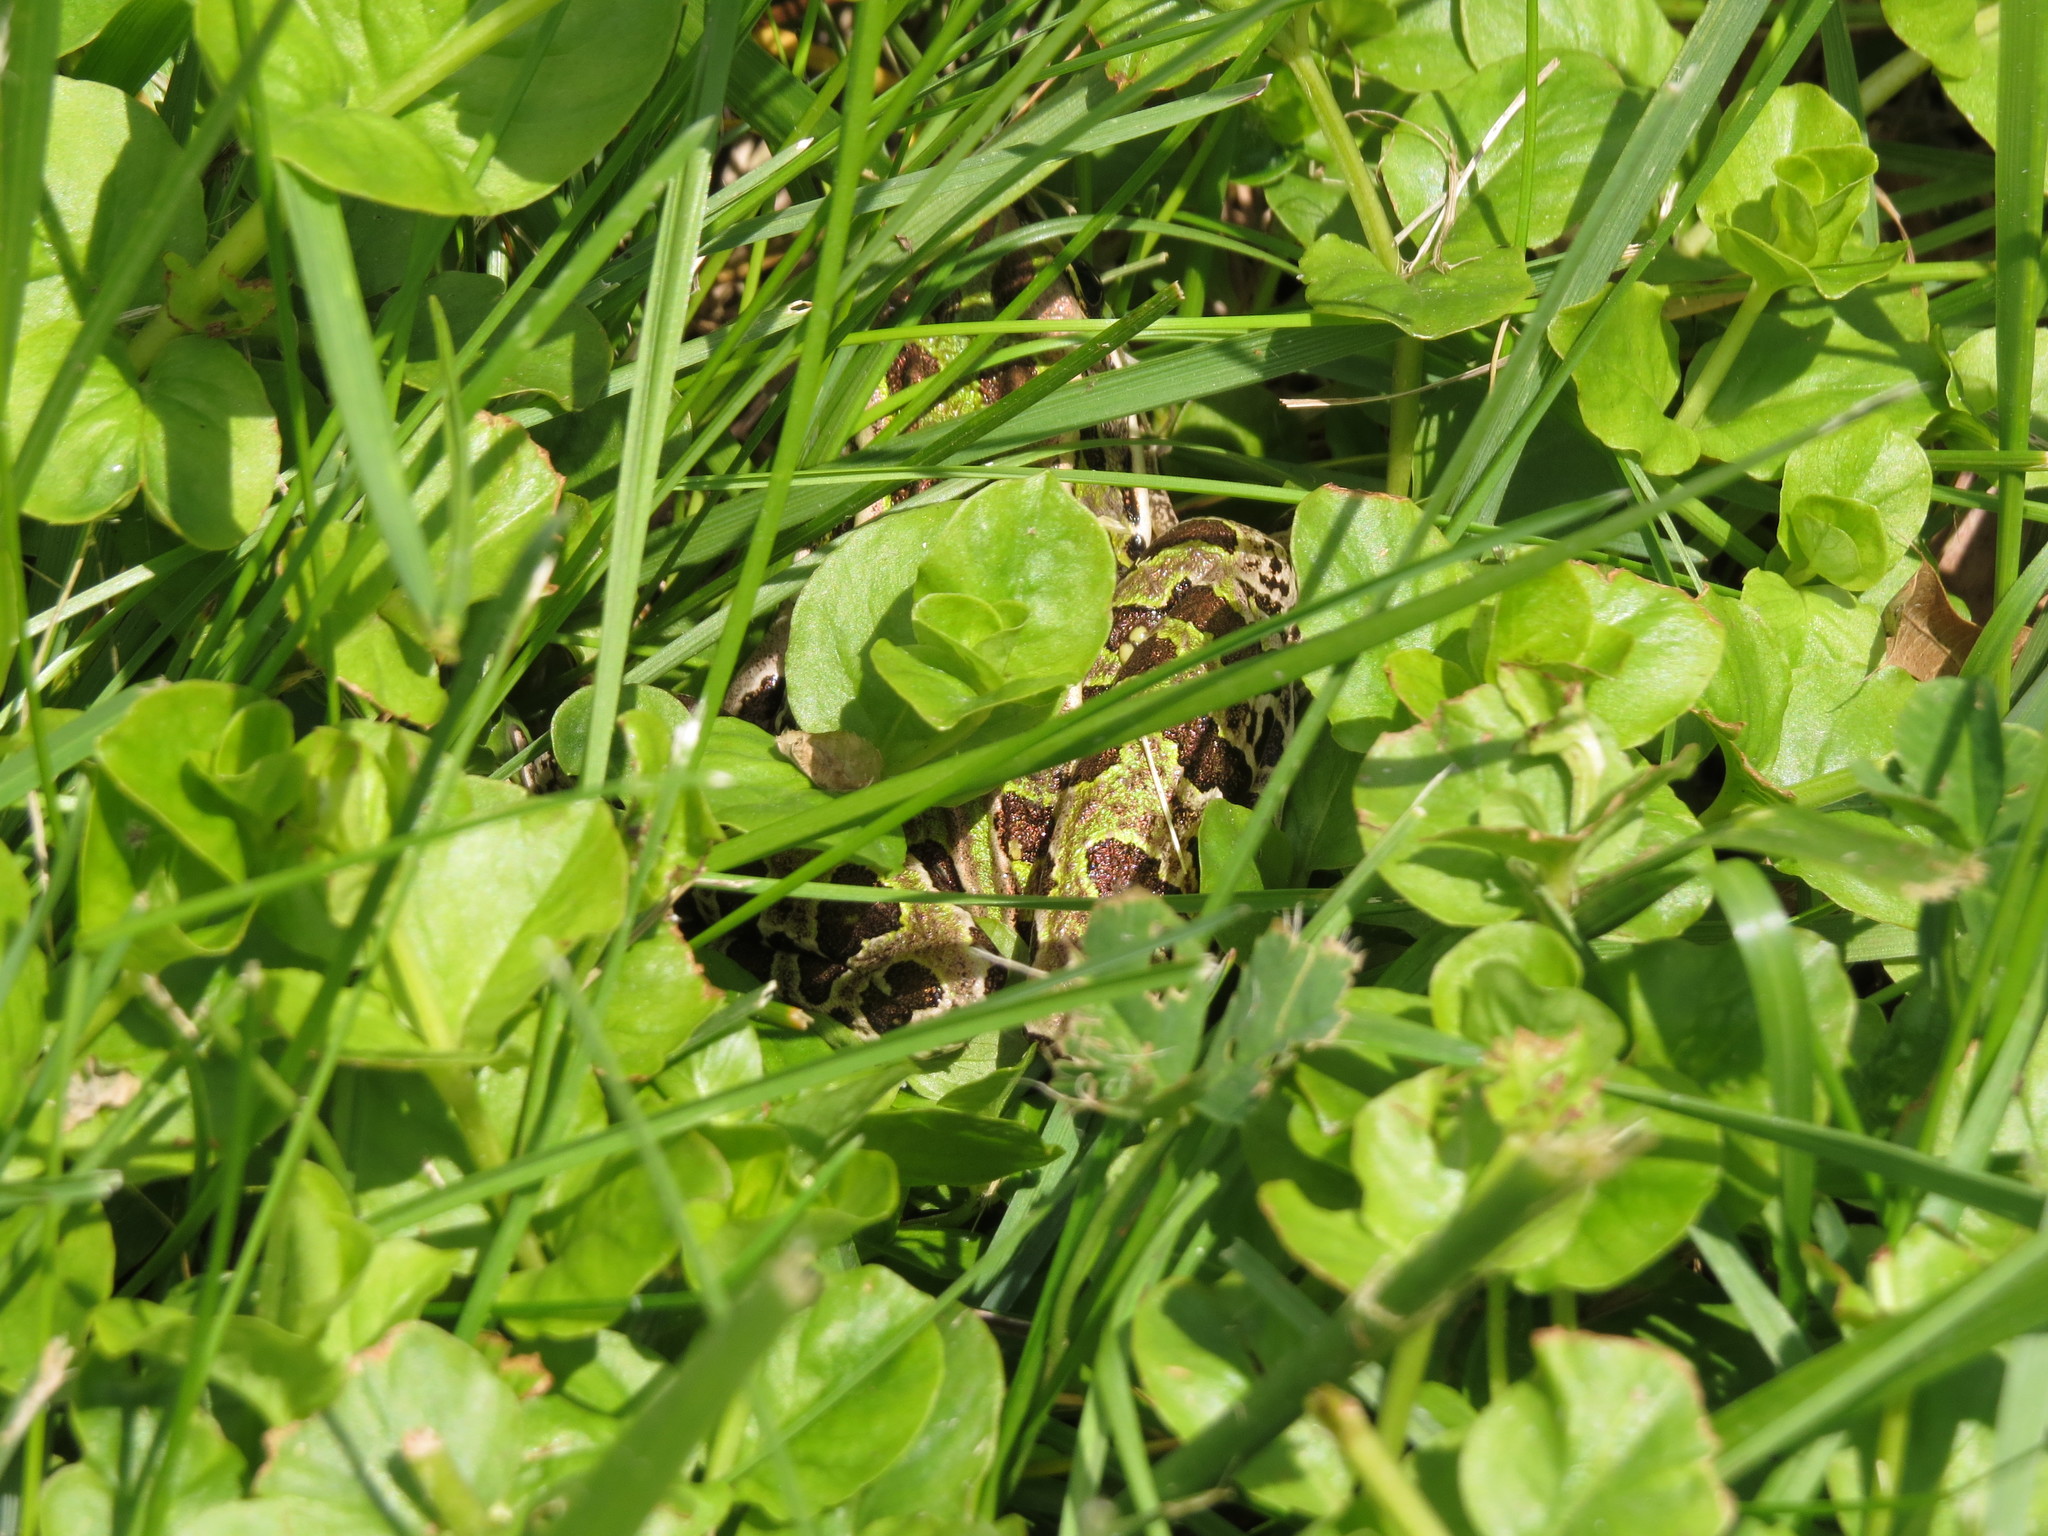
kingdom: Animalia
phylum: Chordata
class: Amphibia
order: Anura
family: Ranidae
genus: Lithobates
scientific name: Lithobates pipiens
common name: Northern leopard frog
